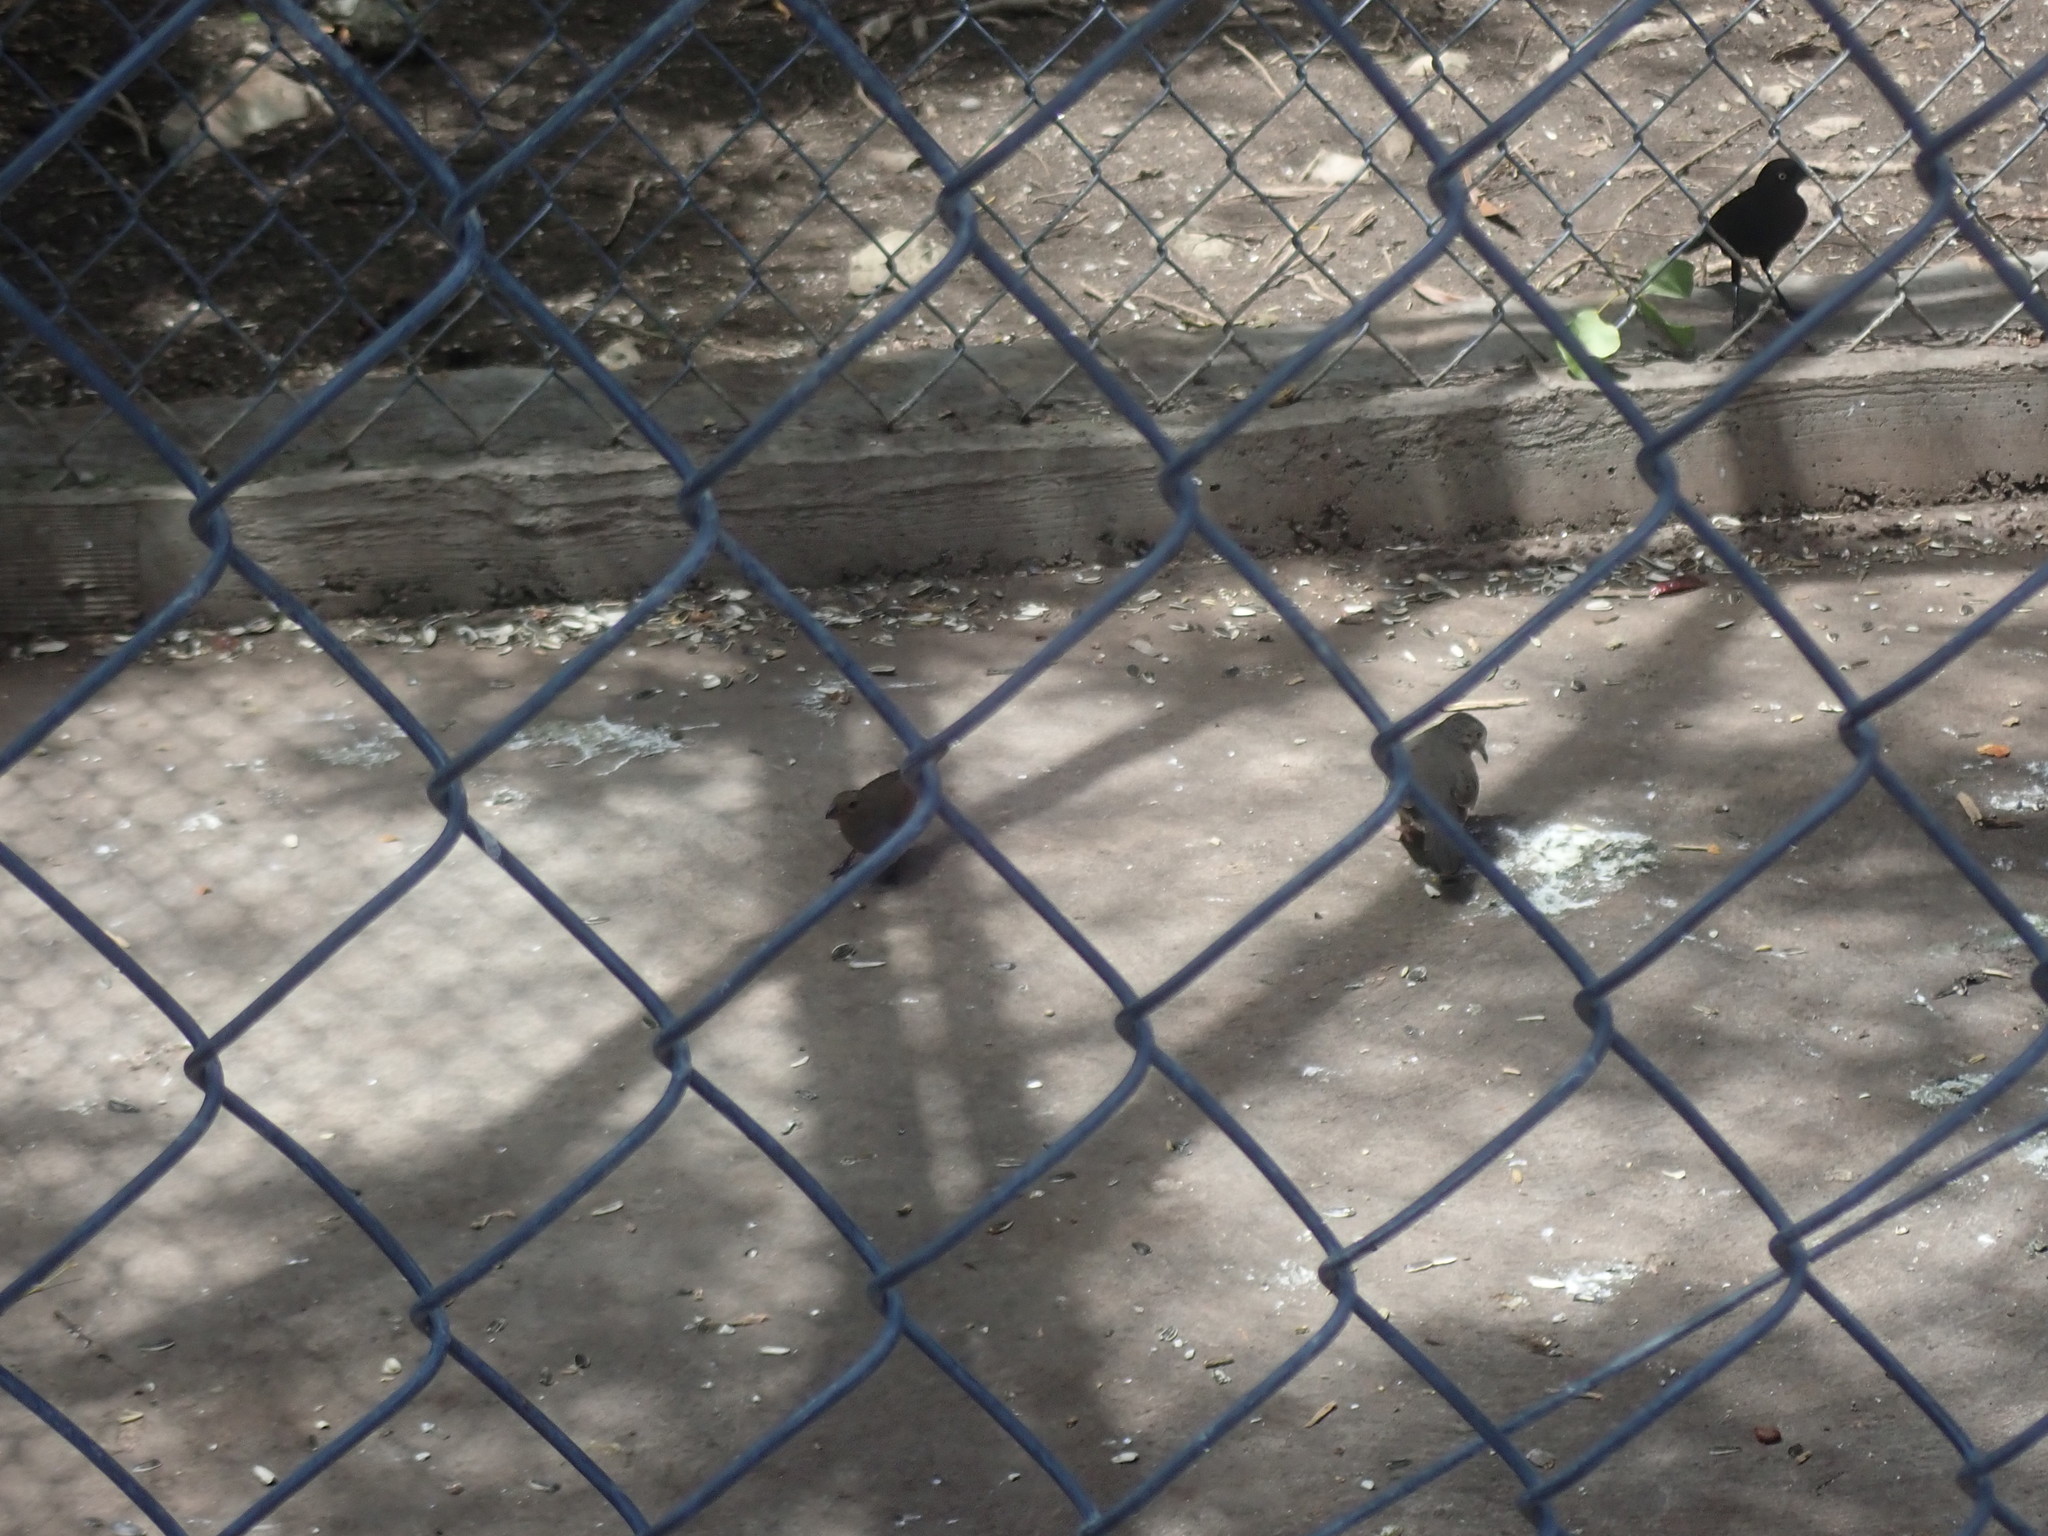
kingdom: Animalia
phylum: Chordata
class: Aves
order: Columbiformes
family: Columbidae
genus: Columbina
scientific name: Columbina passerina
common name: Common ground-dove
